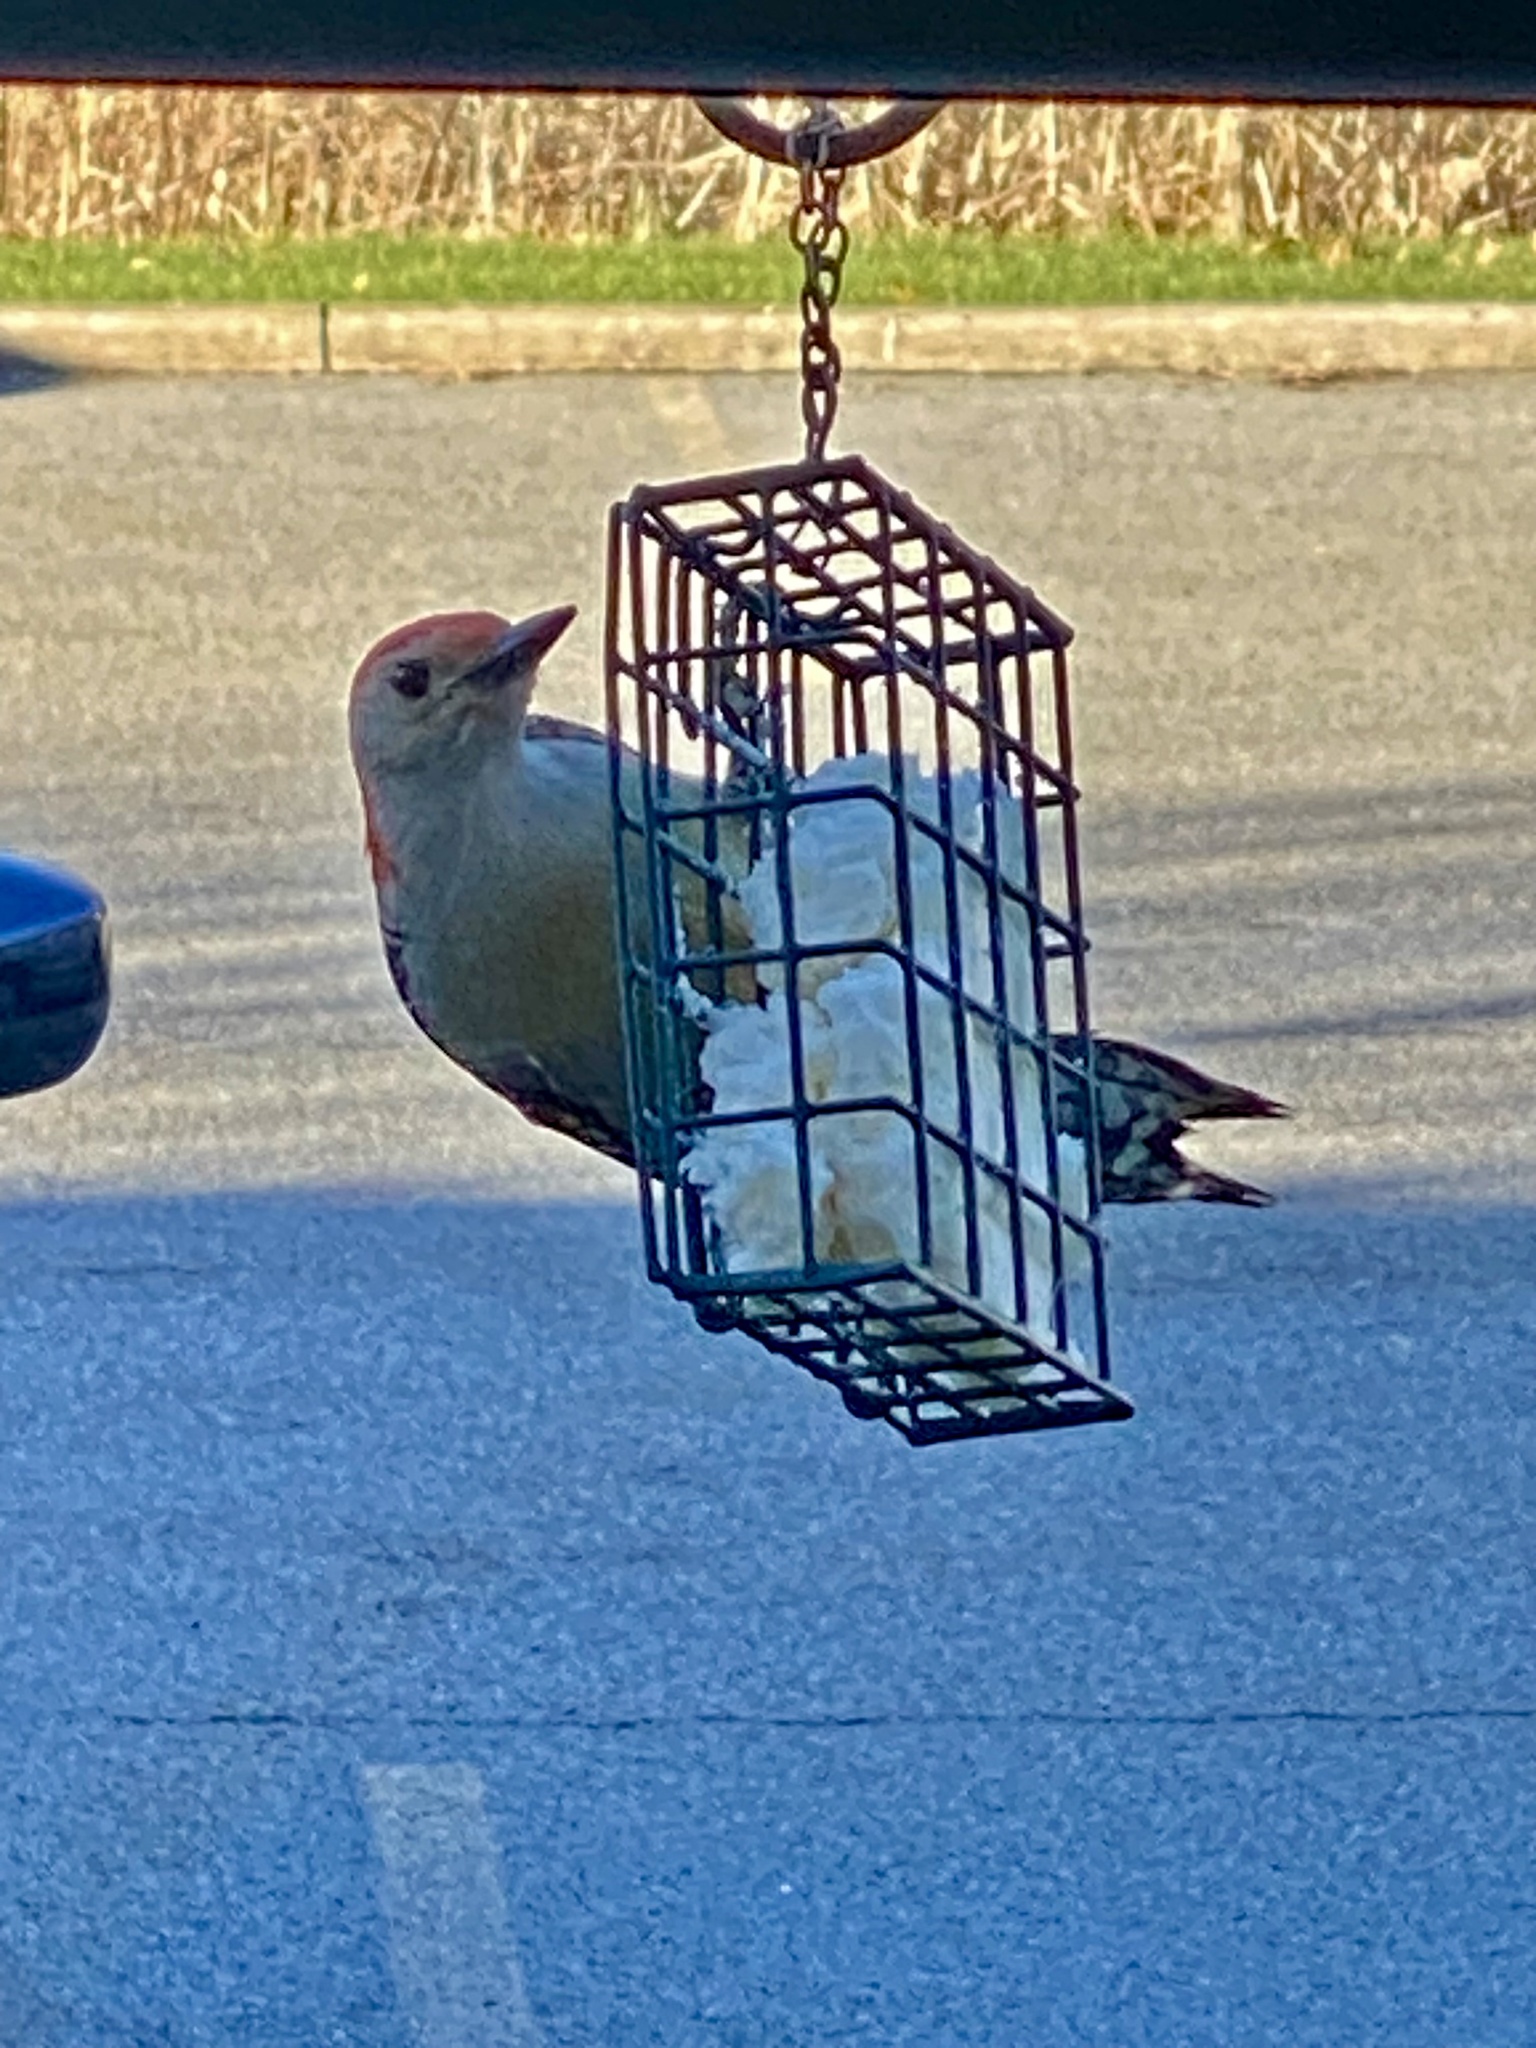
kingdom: Animalia
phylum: Chordata
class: Aves
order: Piciformes
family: Picidae
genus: Melanerpes
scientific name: Melanerpes carolinus
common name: Red-bellied woodpecker
